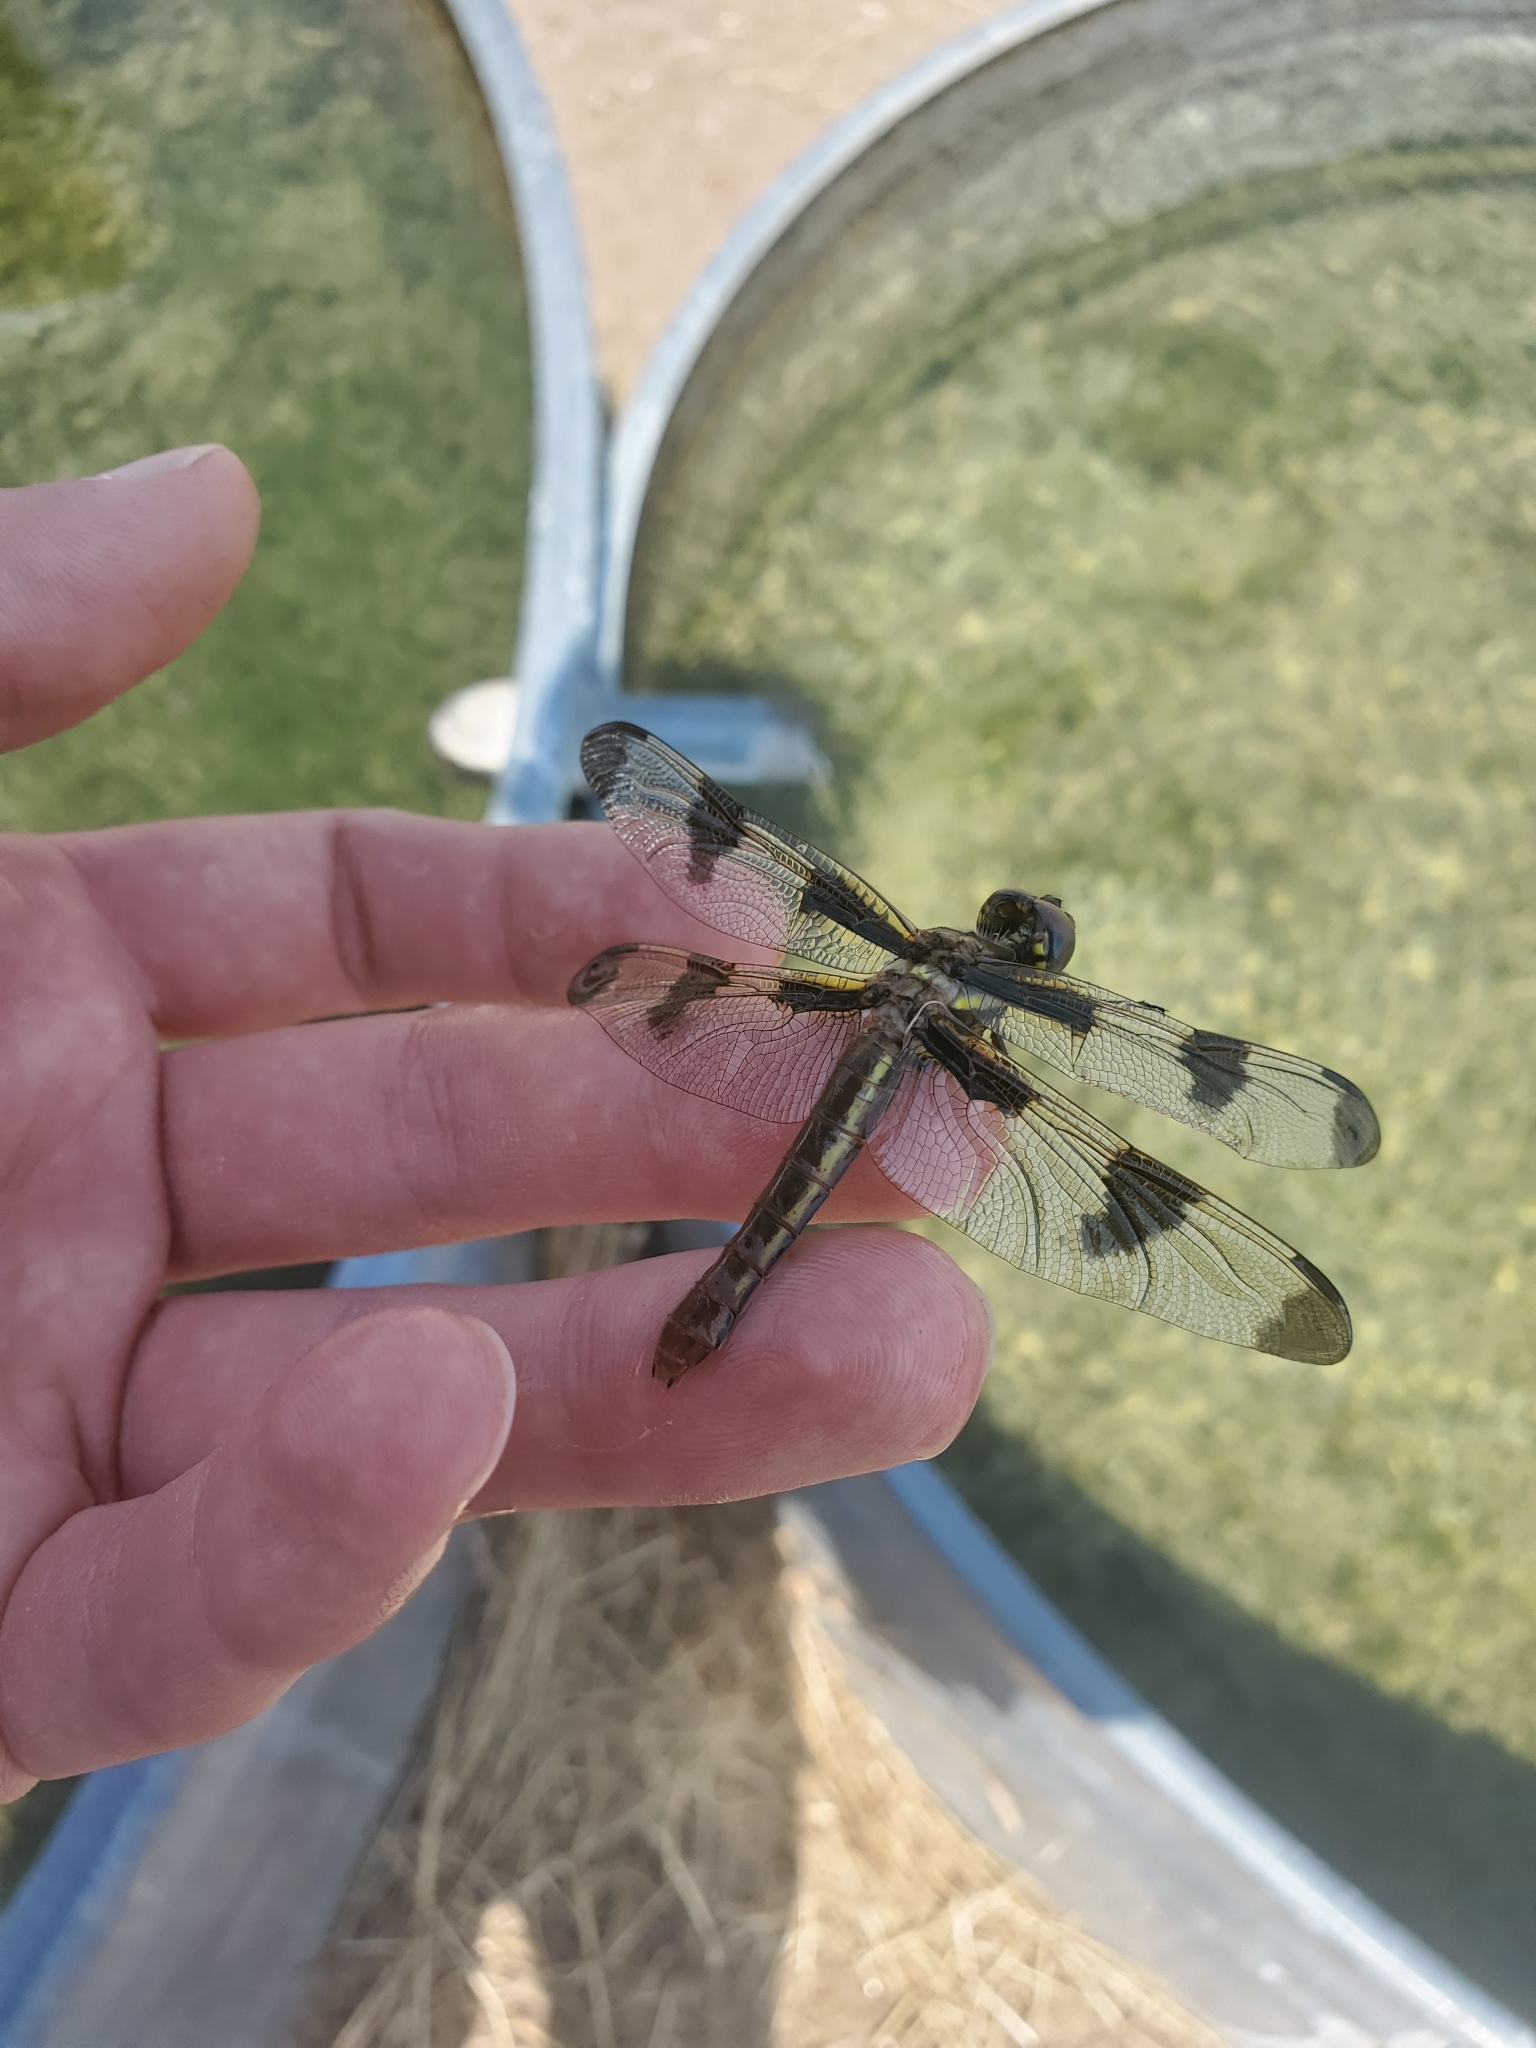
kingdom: Animalia
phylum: Arthropoda
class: Insecta
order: Odonata
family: Libellulidae
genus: Libellula
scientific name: Libellula pulchella
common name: Twelve-spotted skimmer
